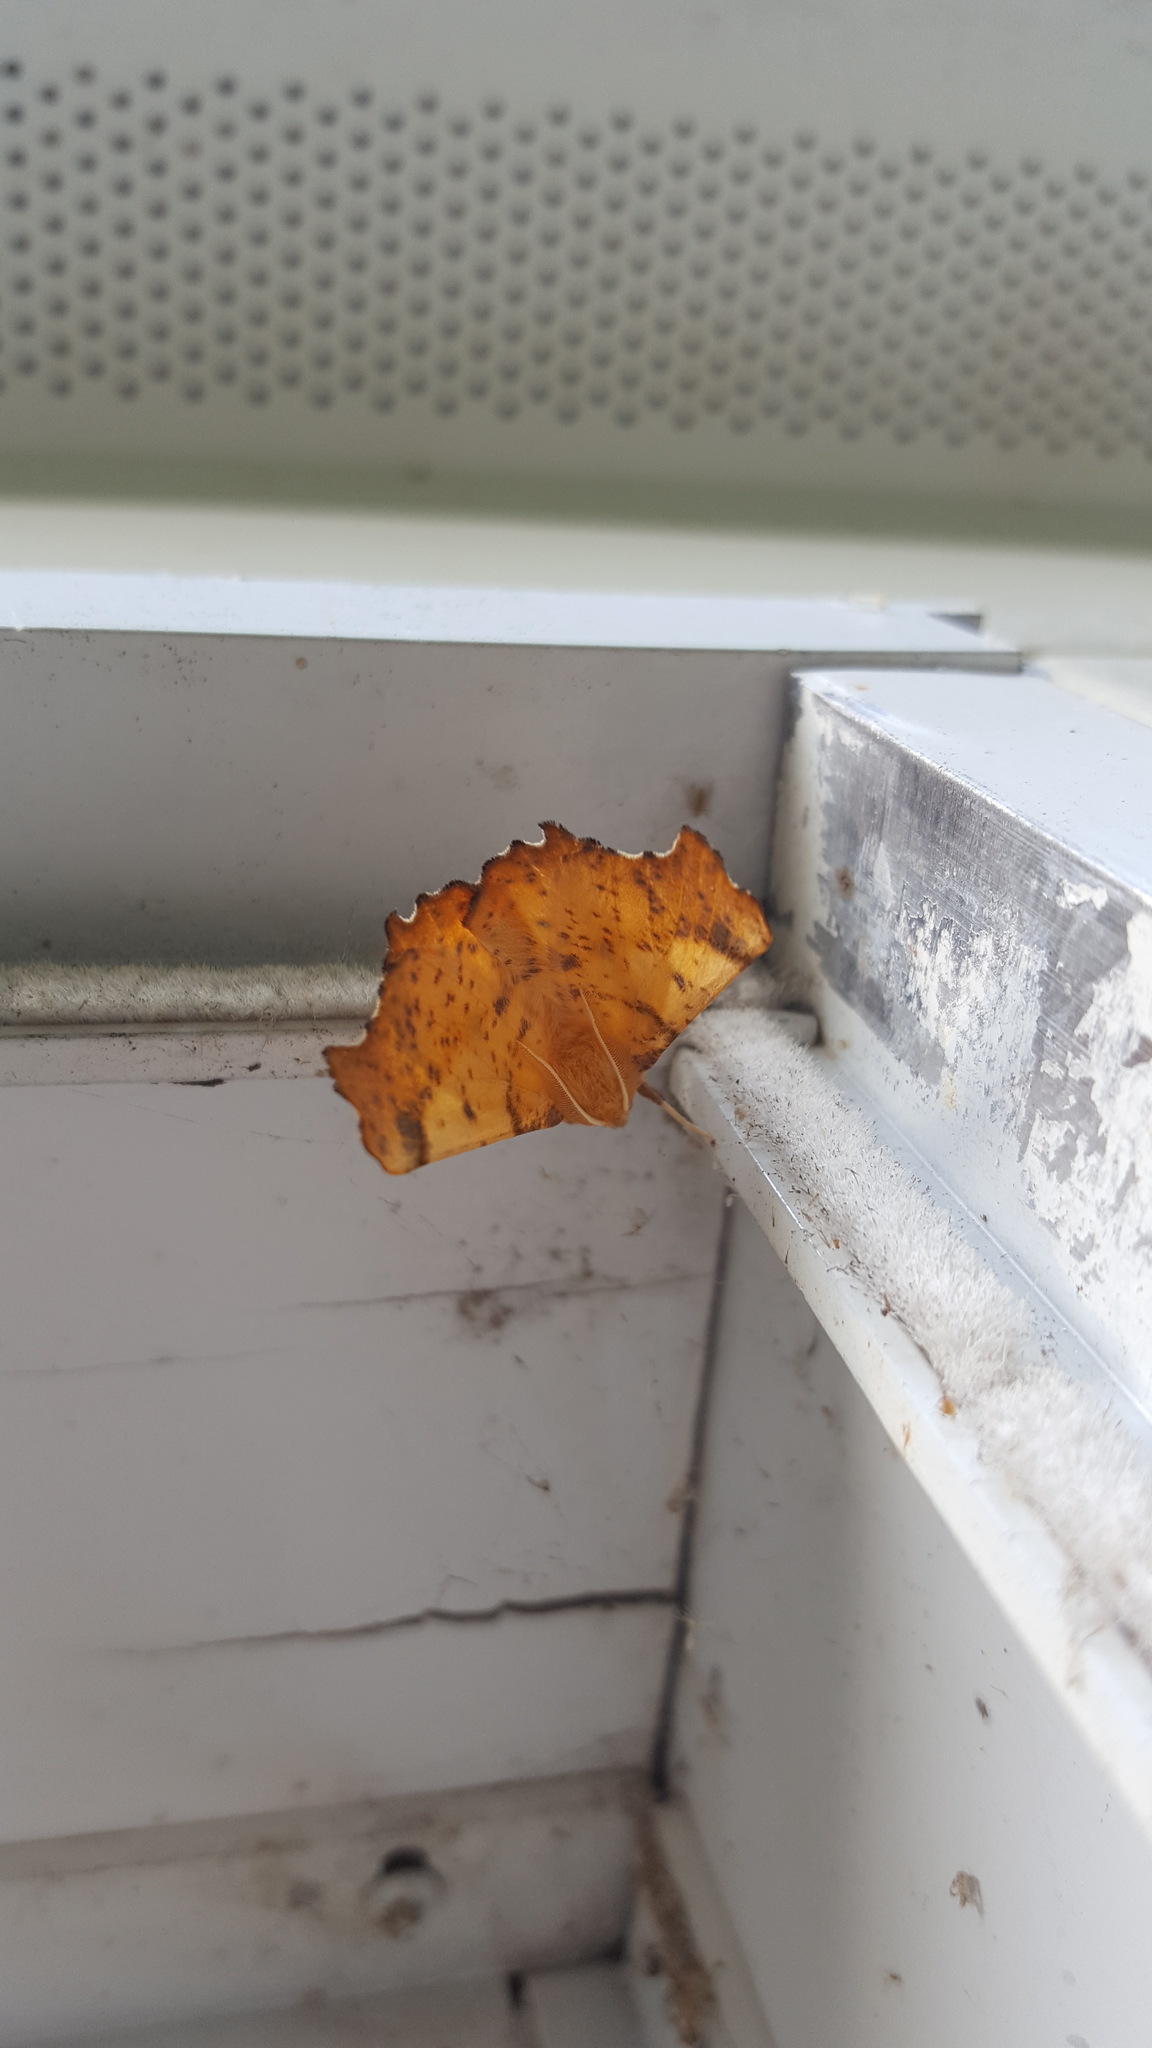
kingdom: Animalia
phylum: Arthropoda
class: Insecta
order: Lepidoptera
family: Geometridae
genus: Ennomos
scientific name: Ennomos magnaria
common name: Maple spanworm
